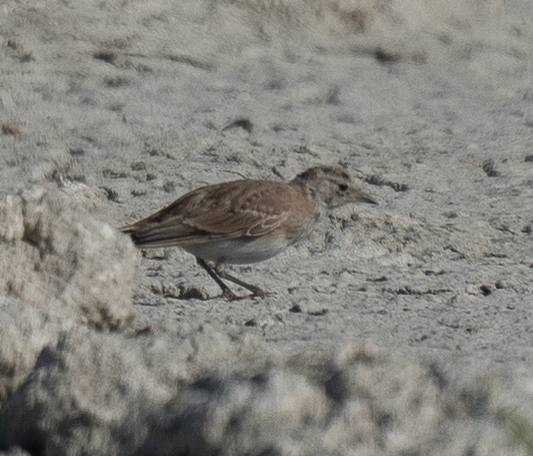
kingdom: Animalia
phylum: Chordata
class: Aves
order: Passeriformes
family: Alaudidae
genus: Eremophila
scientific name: Eremophila alpestris
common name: Horned lark
